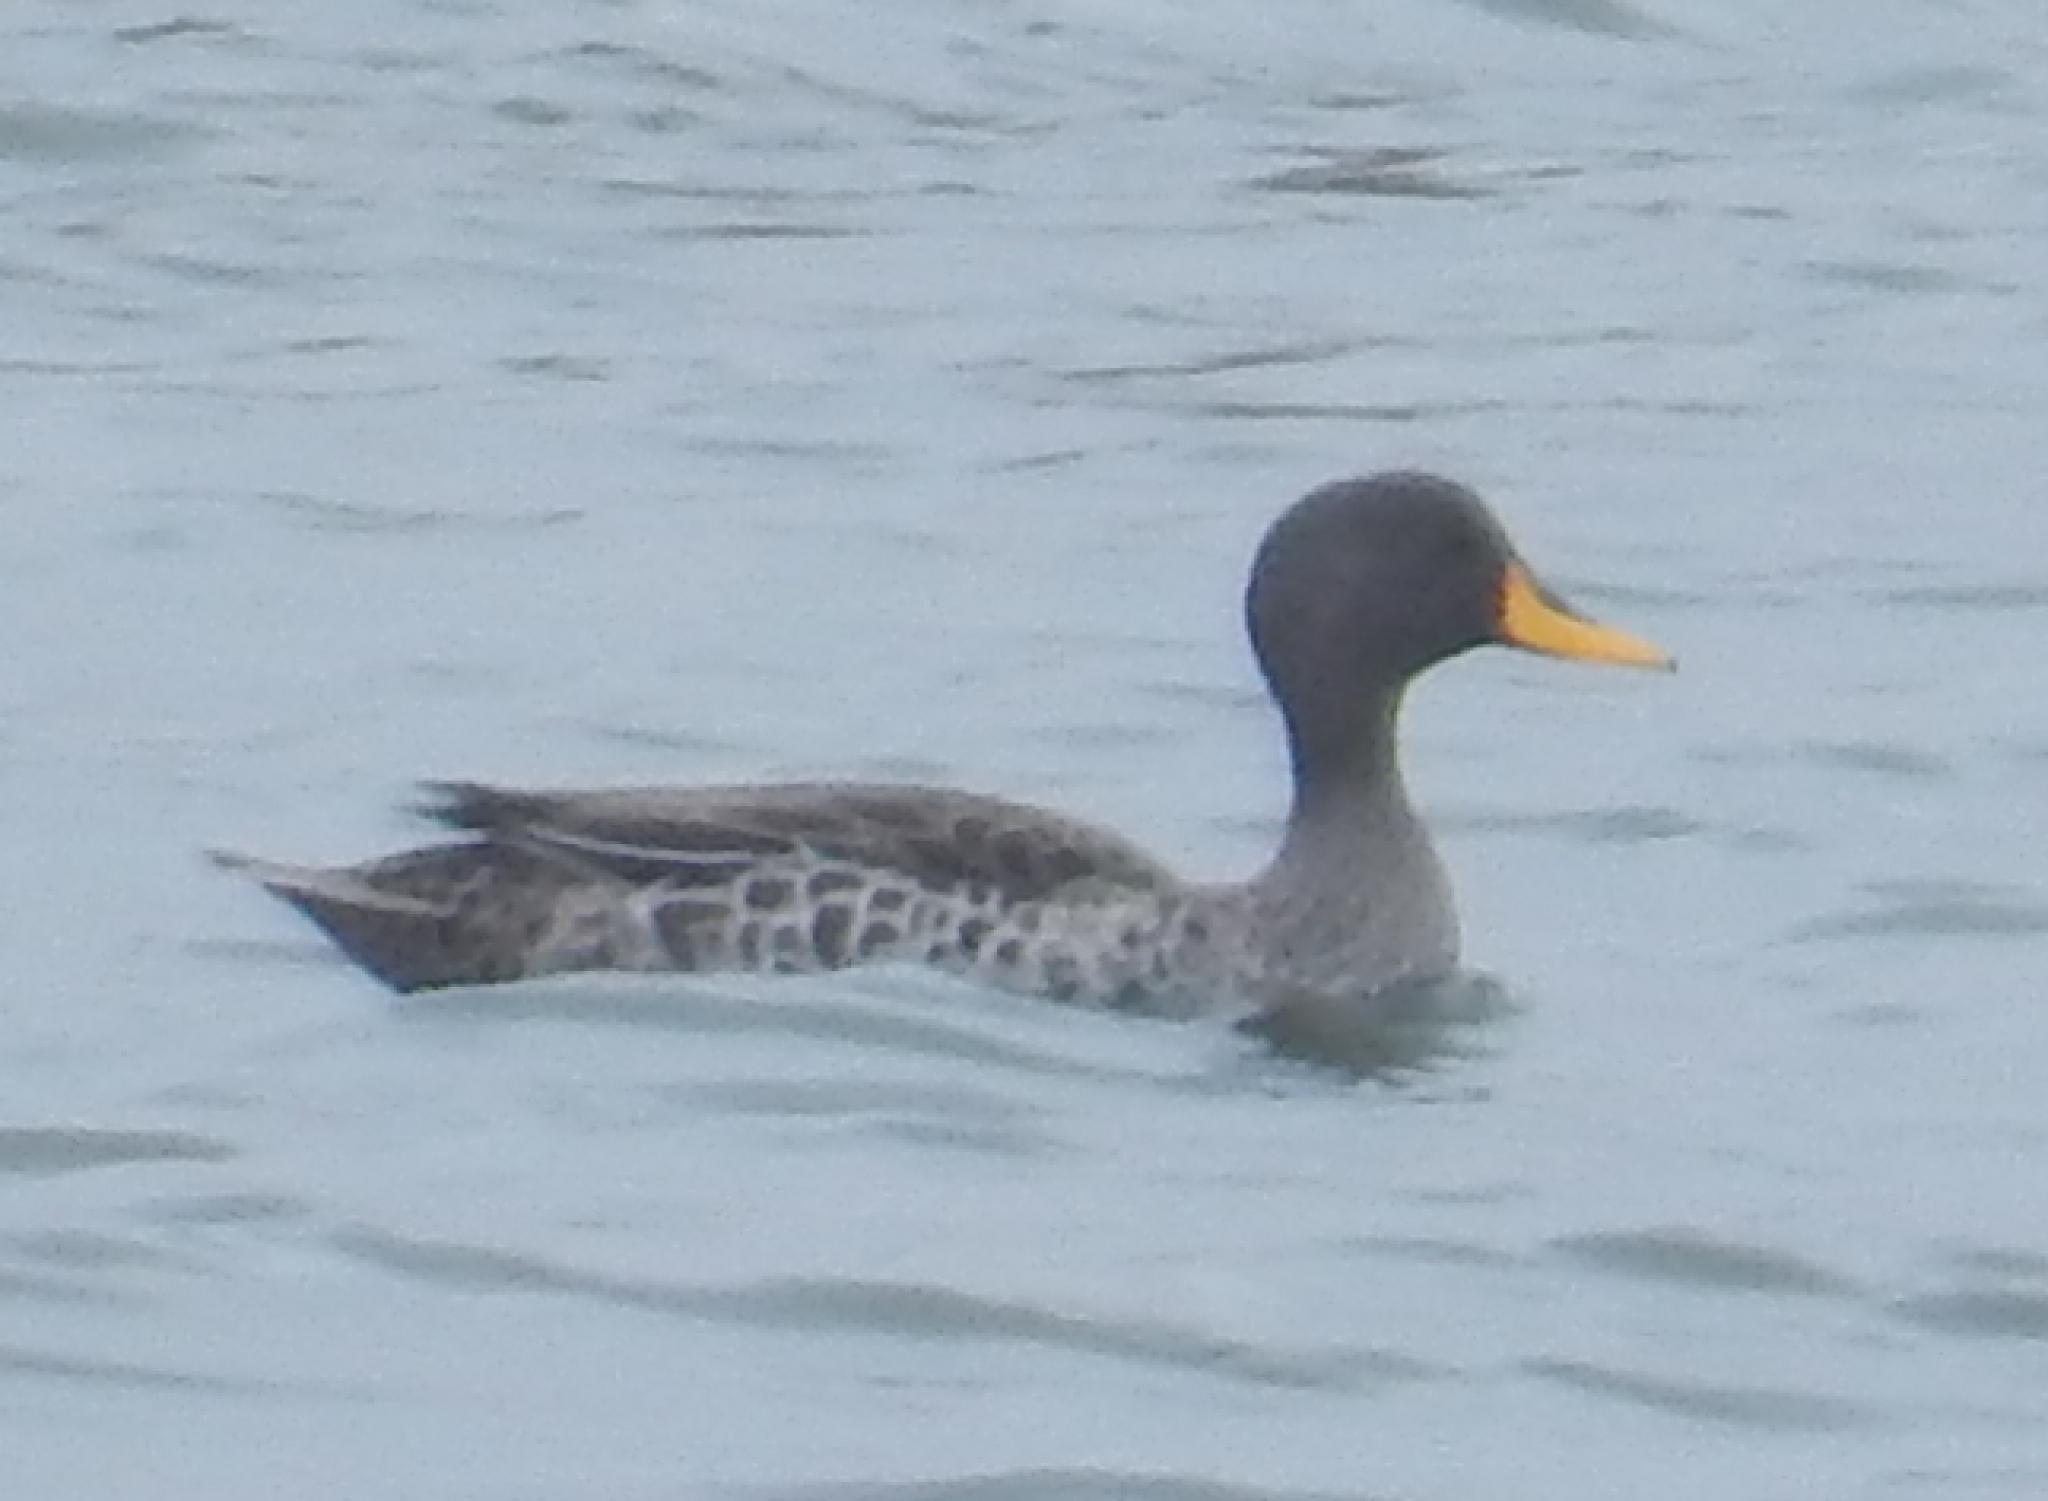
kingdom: Animalia
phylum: Chordata
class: Aves
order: Anseriformes
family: Anatidae
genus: Anas
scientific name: Anas undulata
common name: Yellow-billed duck
